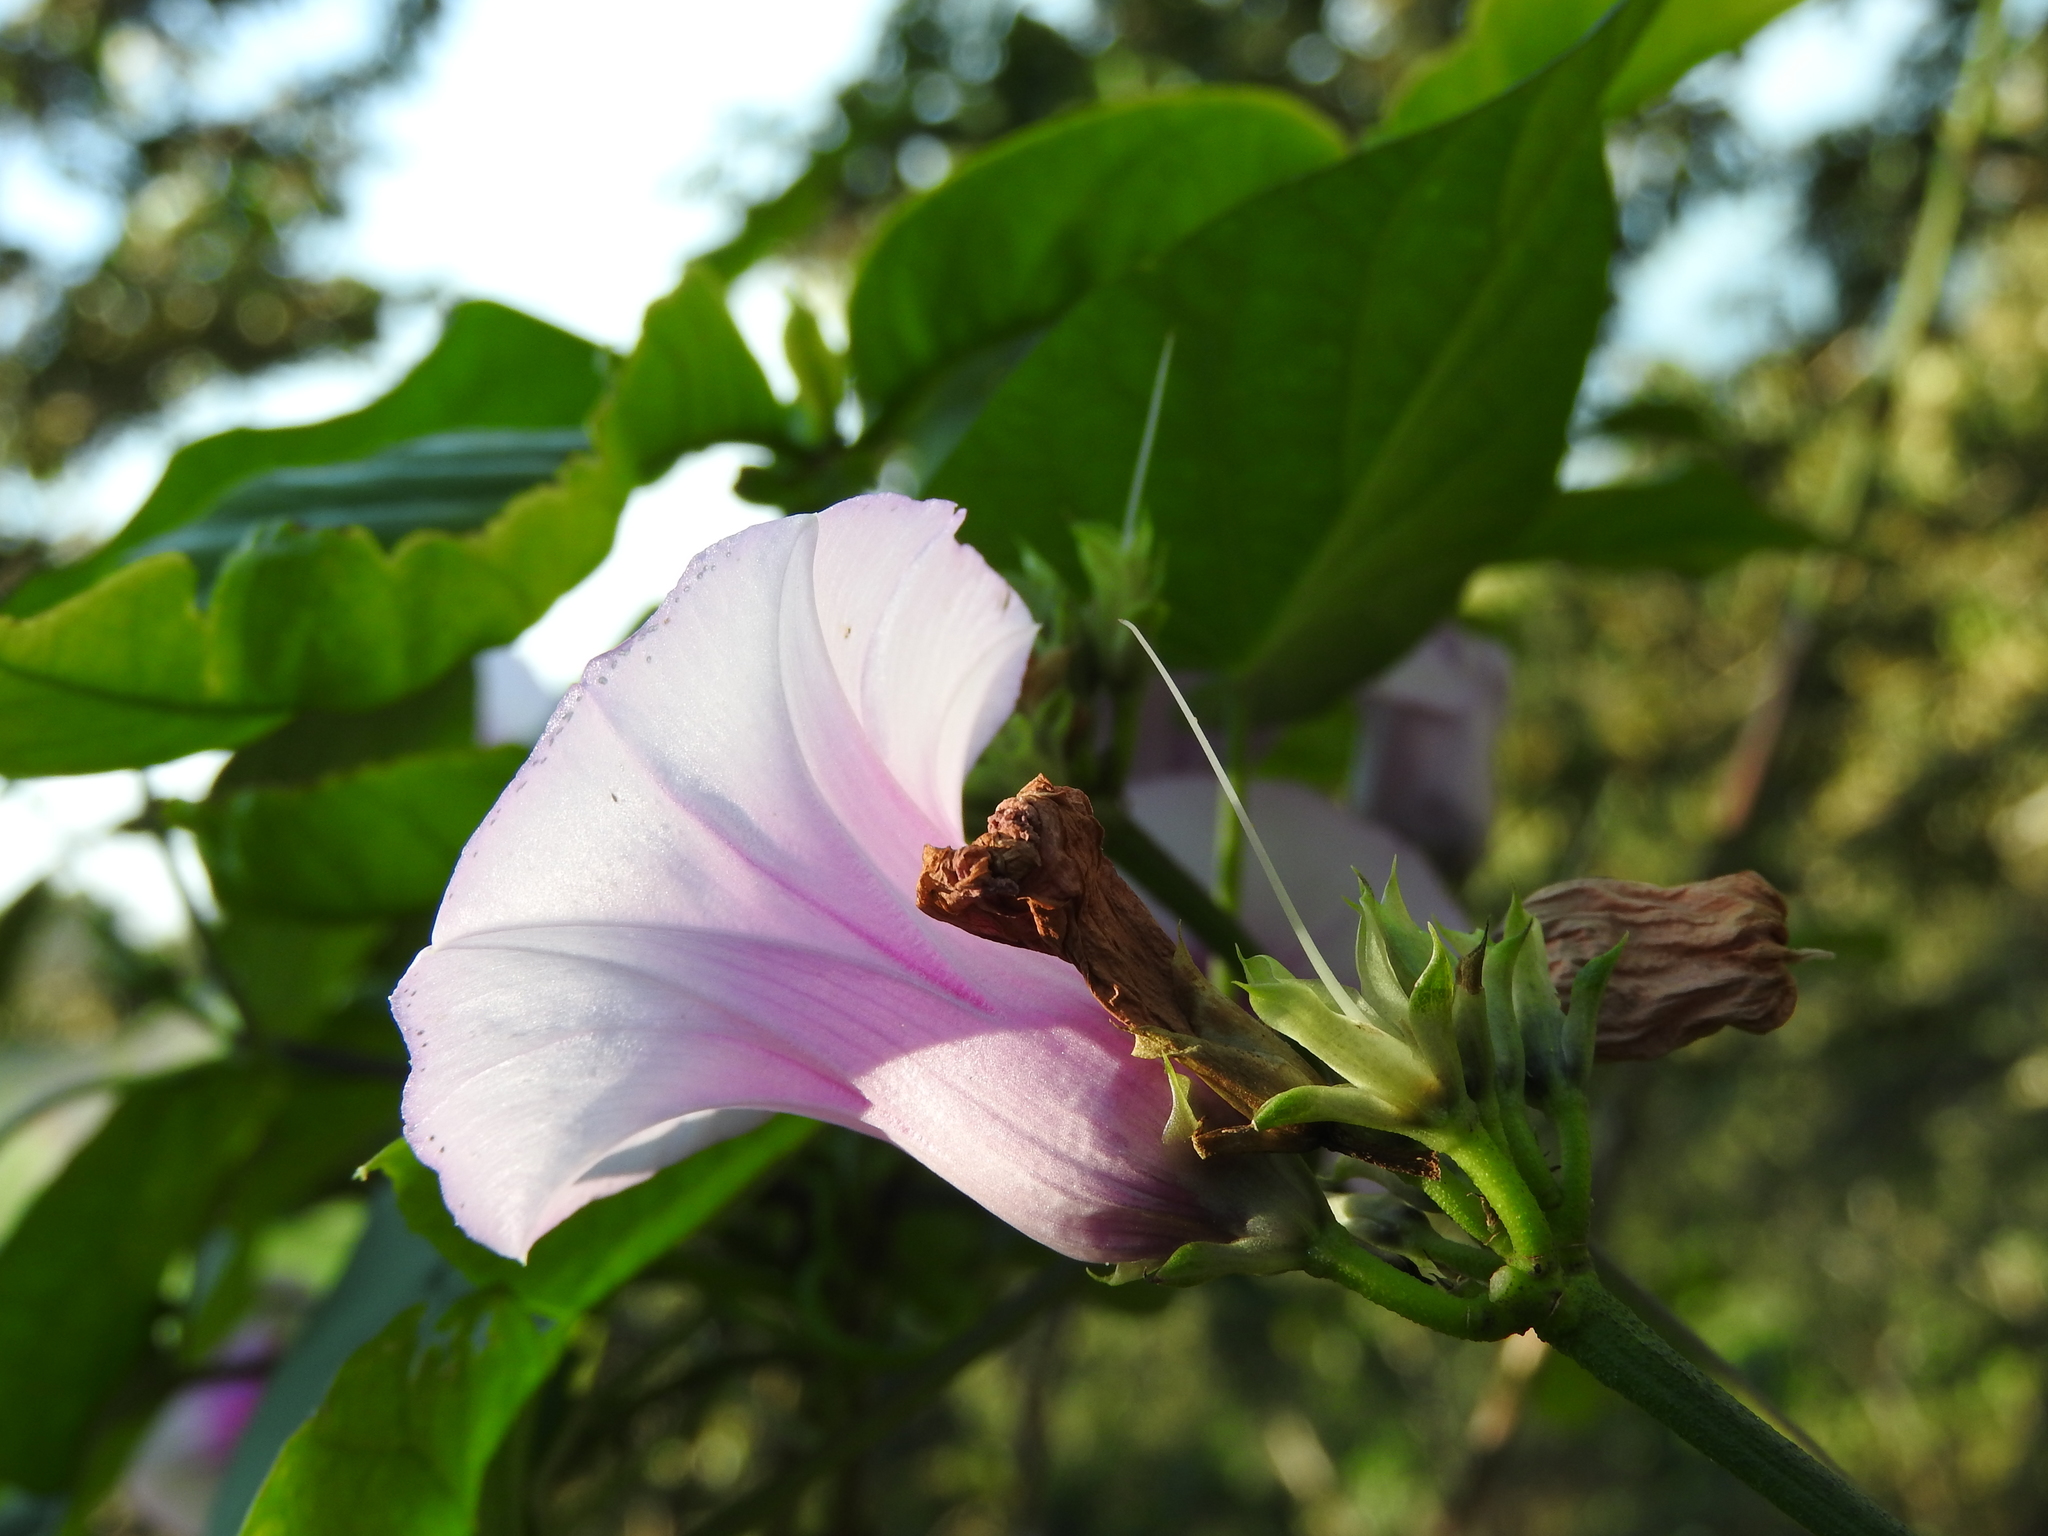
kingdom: Plantae
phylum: Tracheophyta
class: Magnoliopsida
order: Solanales
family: Convolvulaceae
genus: Ipomoea
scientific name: Ipomoea batatas
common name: Sweet-potato
